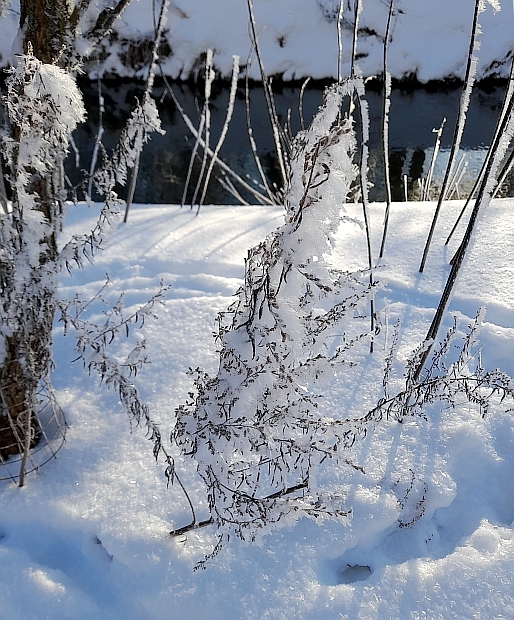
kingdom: Plantae
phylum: Tracheophyta
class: Magnoliopsida
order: Asterales
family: Asteraceae
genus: Artemisia
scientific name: Artemisia vulgaris
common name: Mugwort
